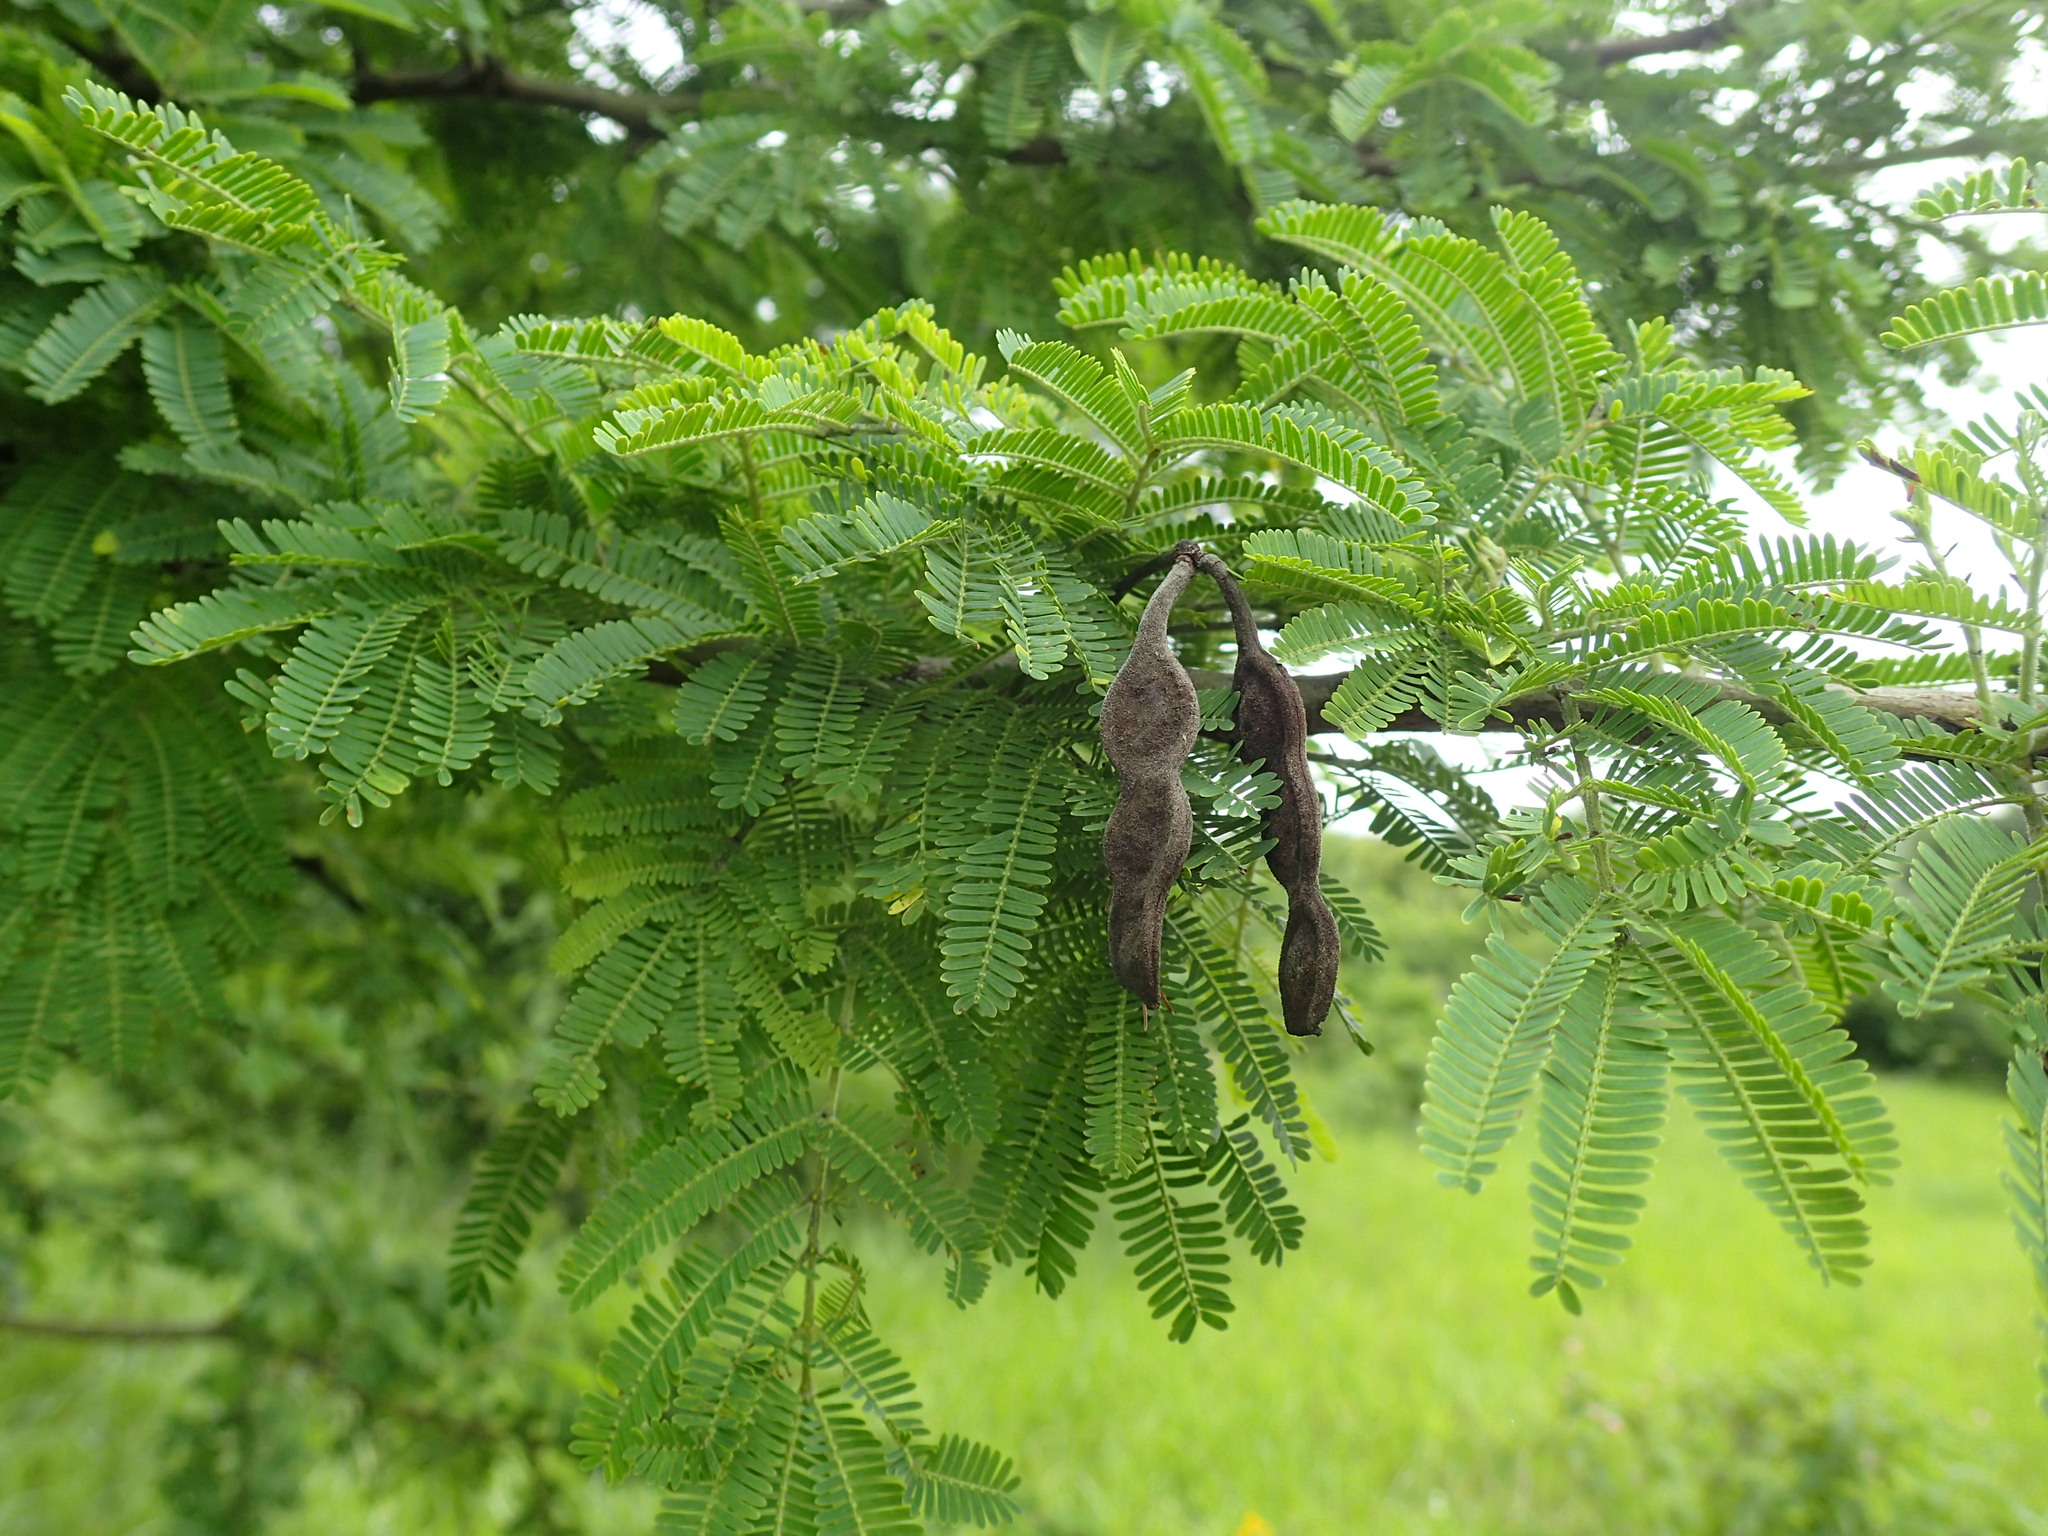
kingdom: Plantae
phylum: Tracheophyta
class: Magnoliopsida
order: Fabales
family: Fabaceae
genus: Vachellia
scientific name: Vachellia nilotica
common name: Arabic gumtree
